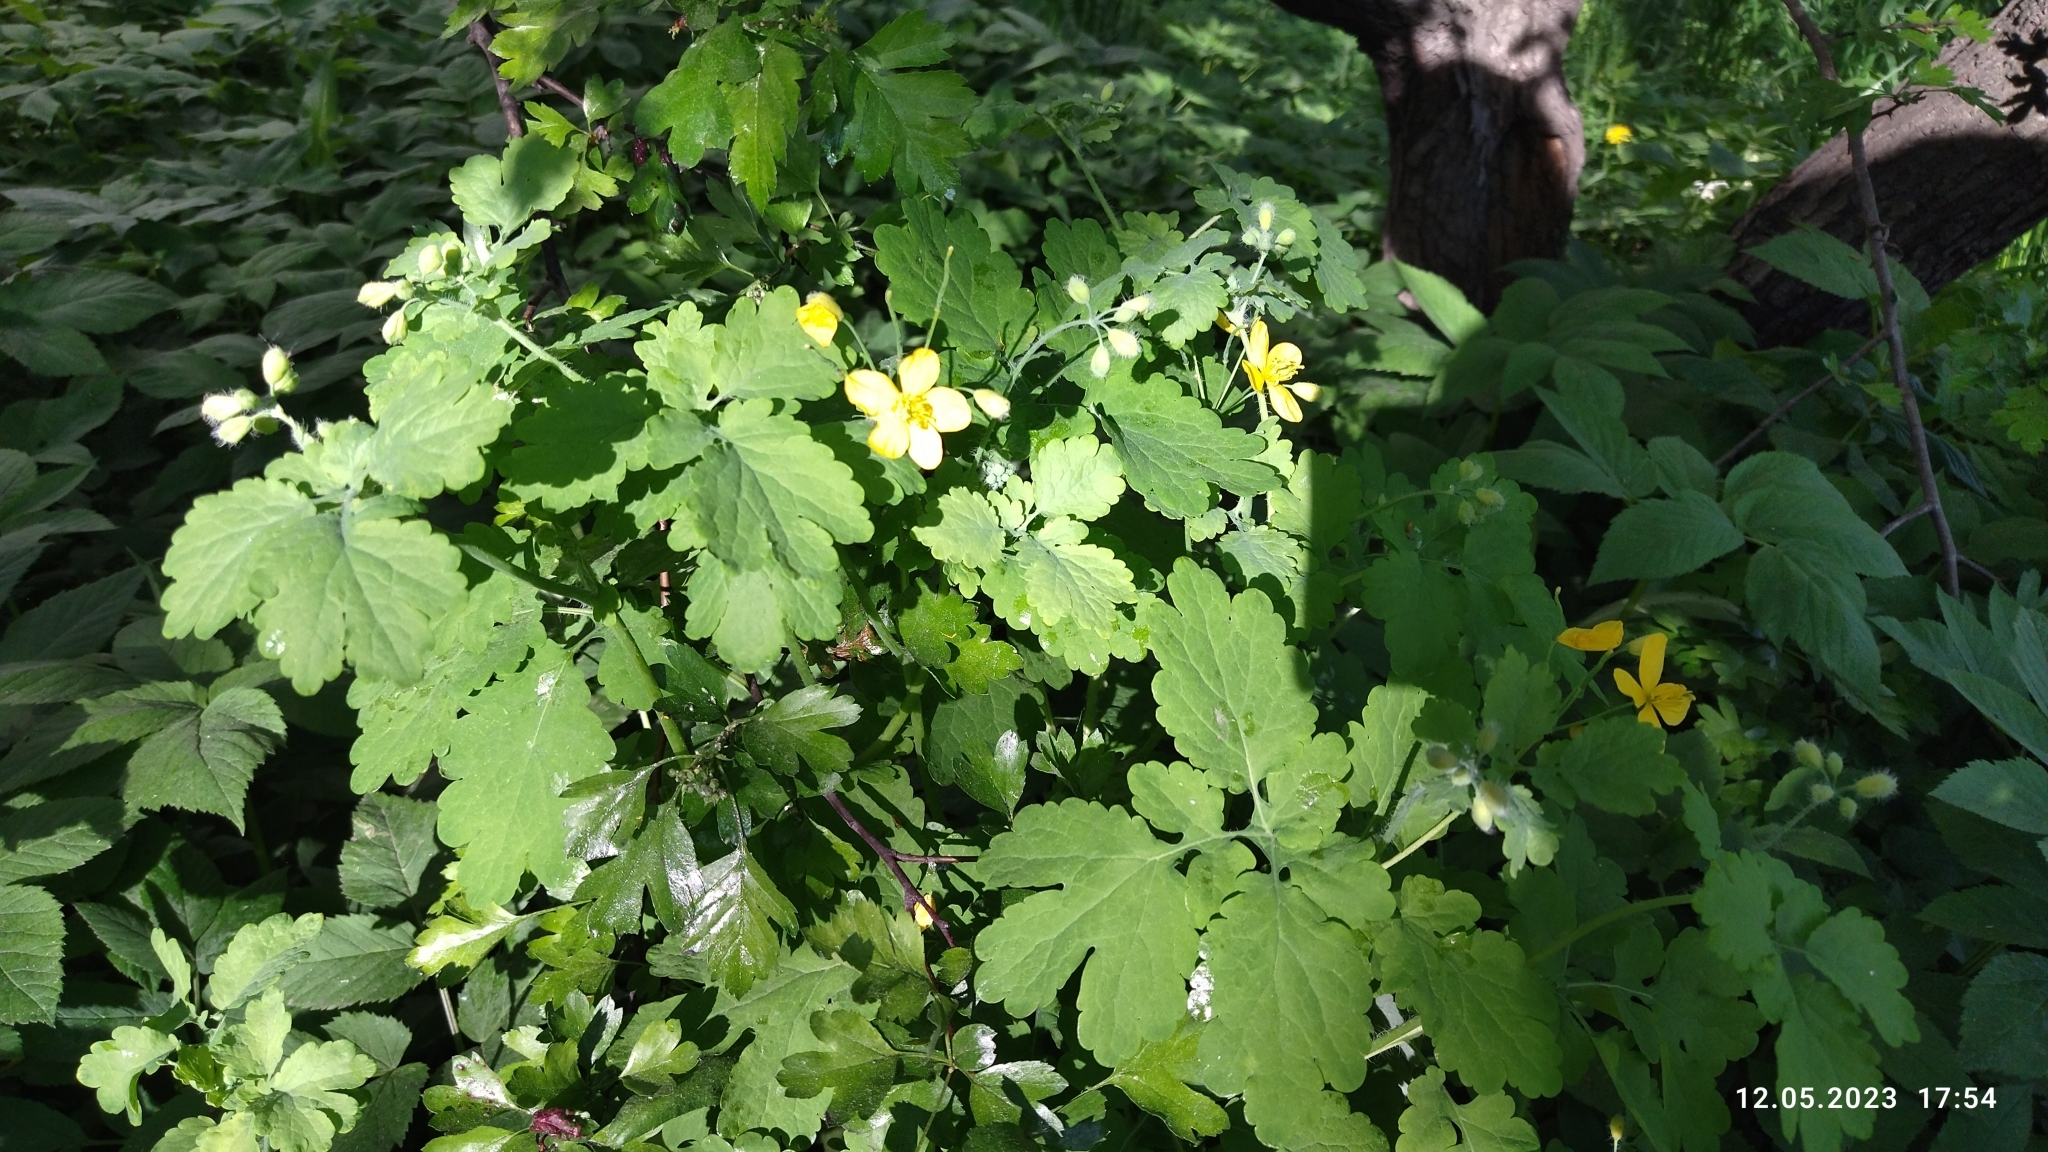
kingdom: Plantae
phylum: Tracheophyta
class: Magnoliopsida
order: Ranunculales
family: Papaveraceae
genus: Chelidonium
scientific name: Chelidonium majus
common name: Greater celandine
